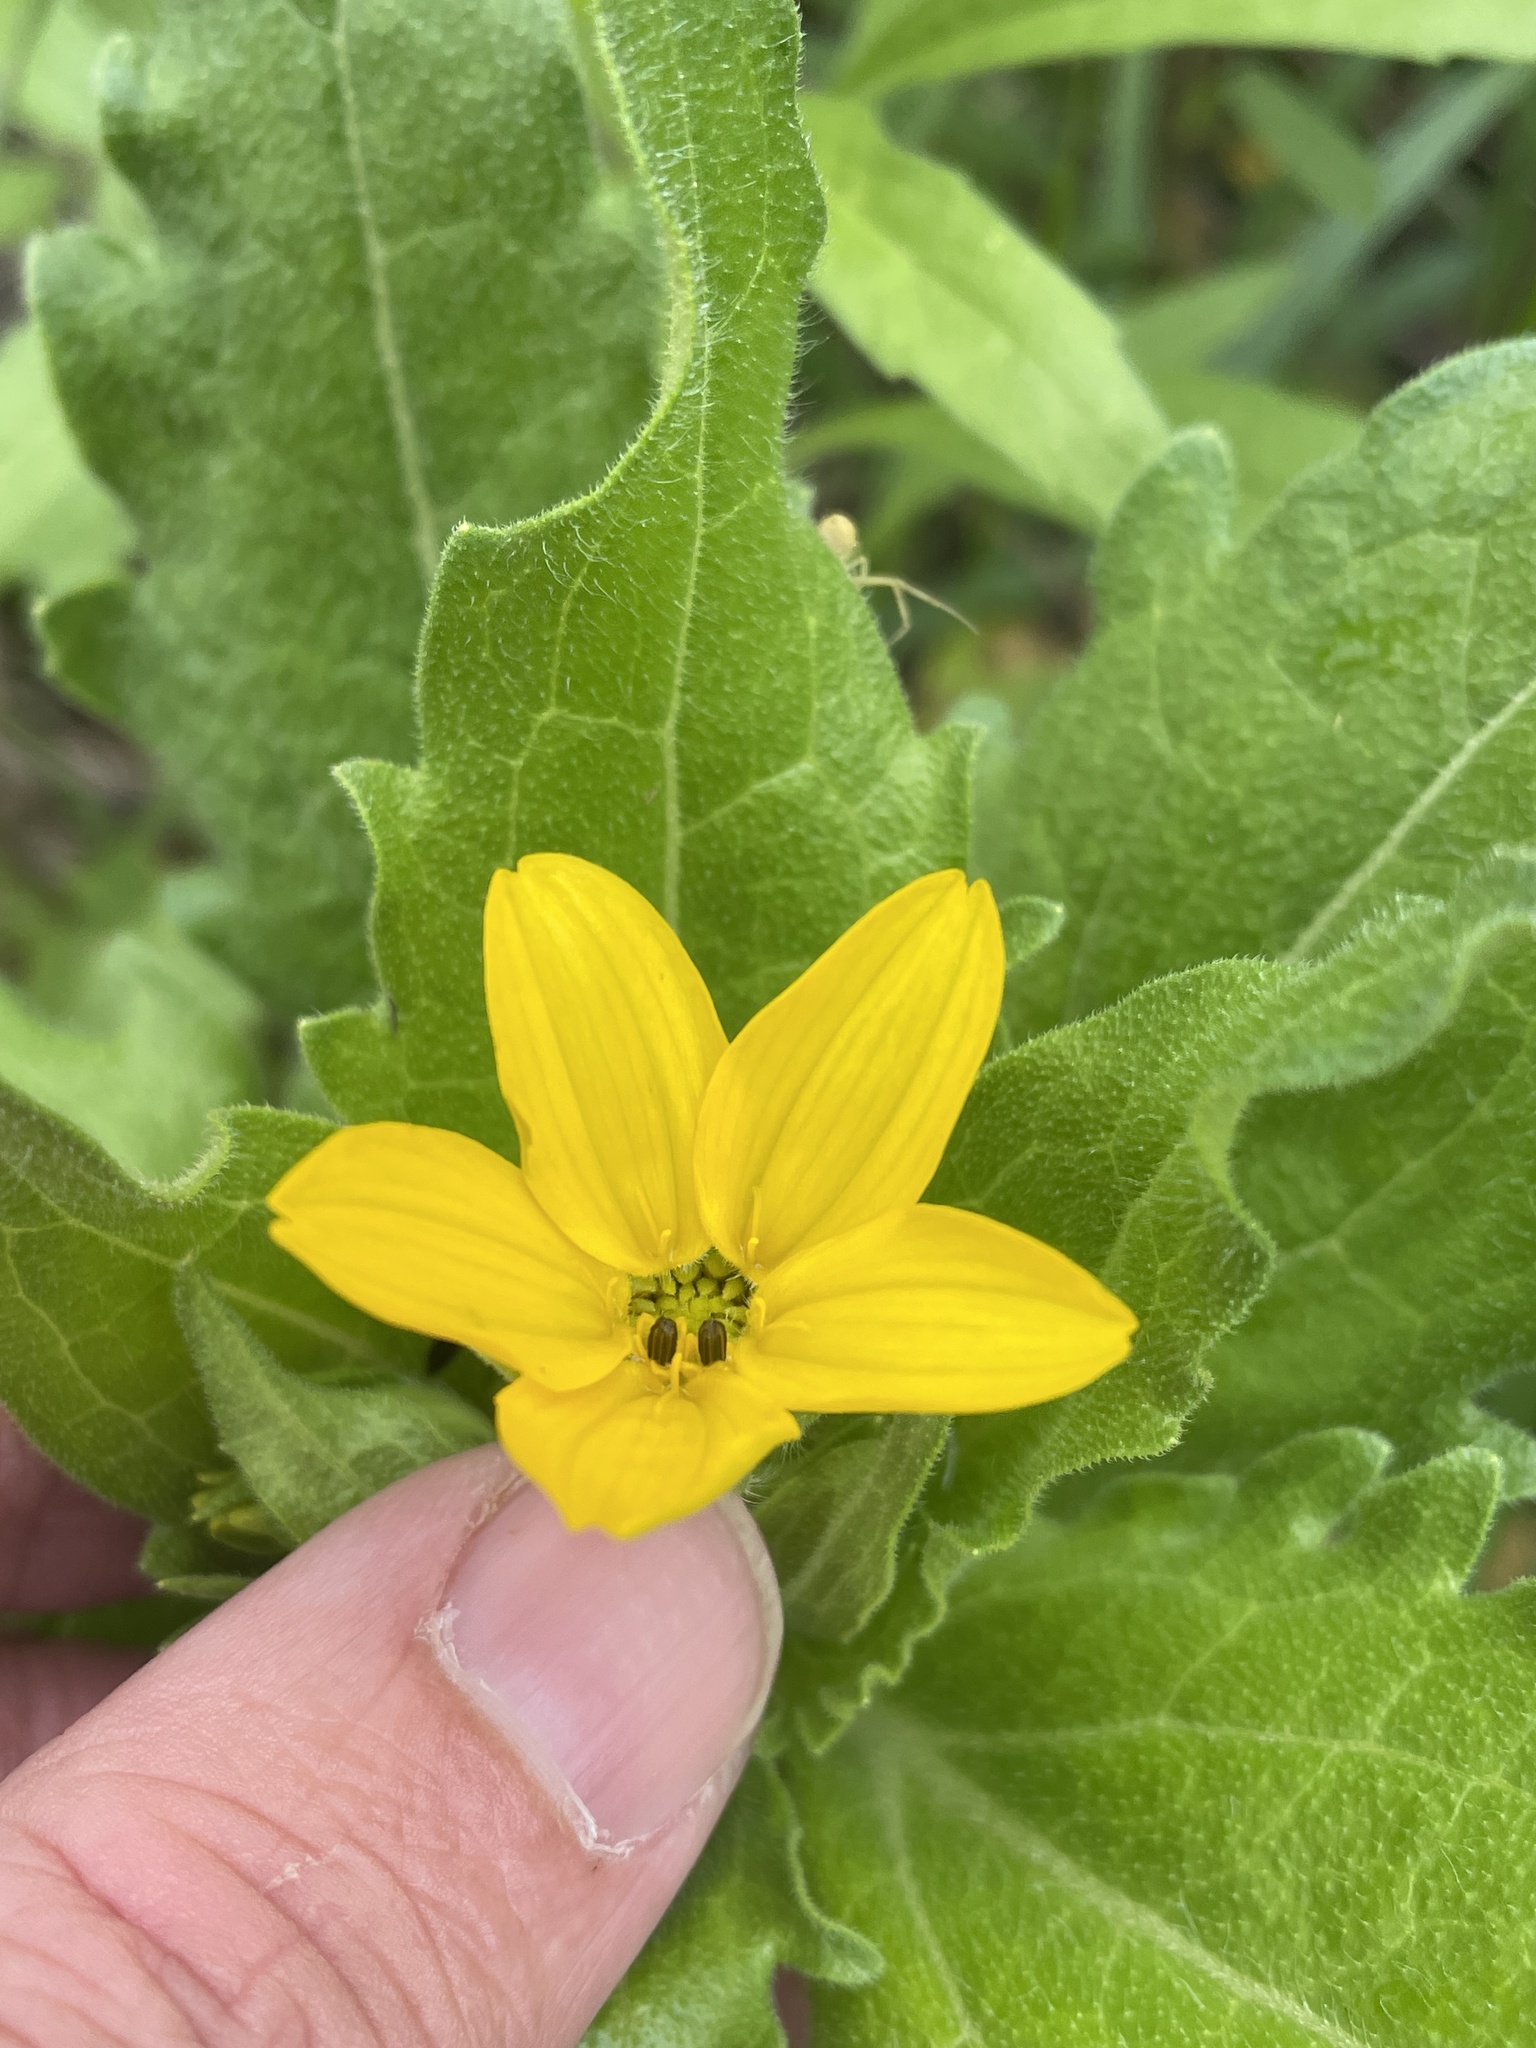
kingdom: Plantae
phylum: Tracheophyta
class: Magnoliopsida
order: Asterales
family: Asteraceae
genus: Lindheimera
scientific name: Lindheimera texana
